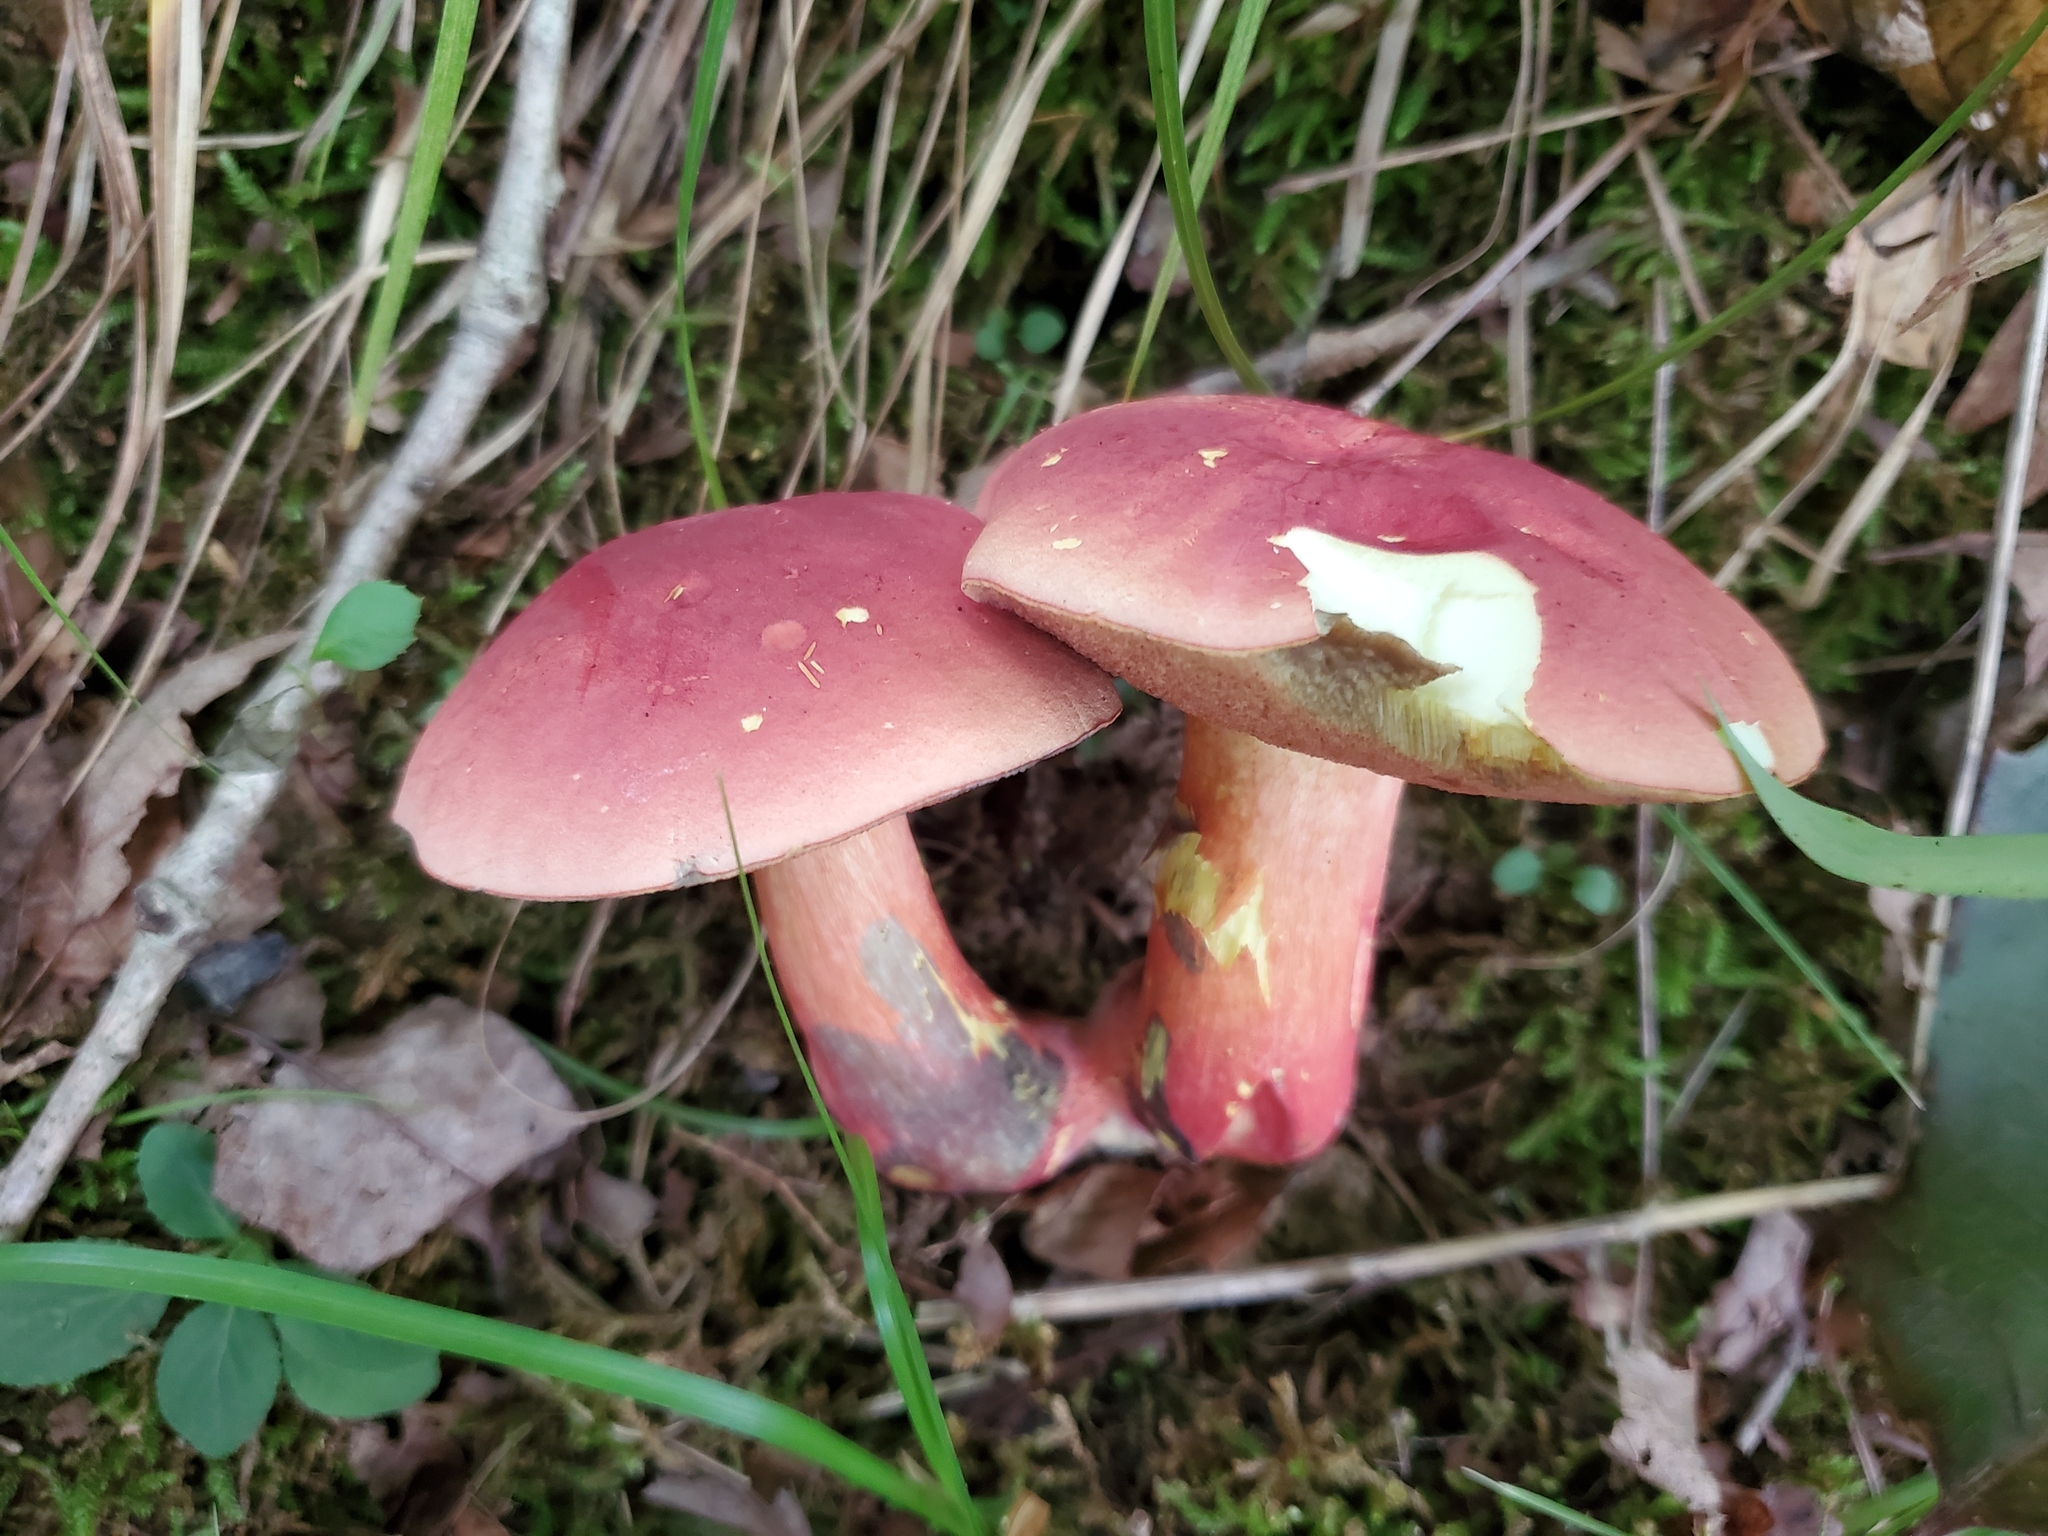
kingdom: Fungi
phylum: Basidiomycota
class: Agaricomycetes
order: Boletales
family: Boletaceae
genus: Lanmaoa
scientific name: Lanmaoa sublurida
